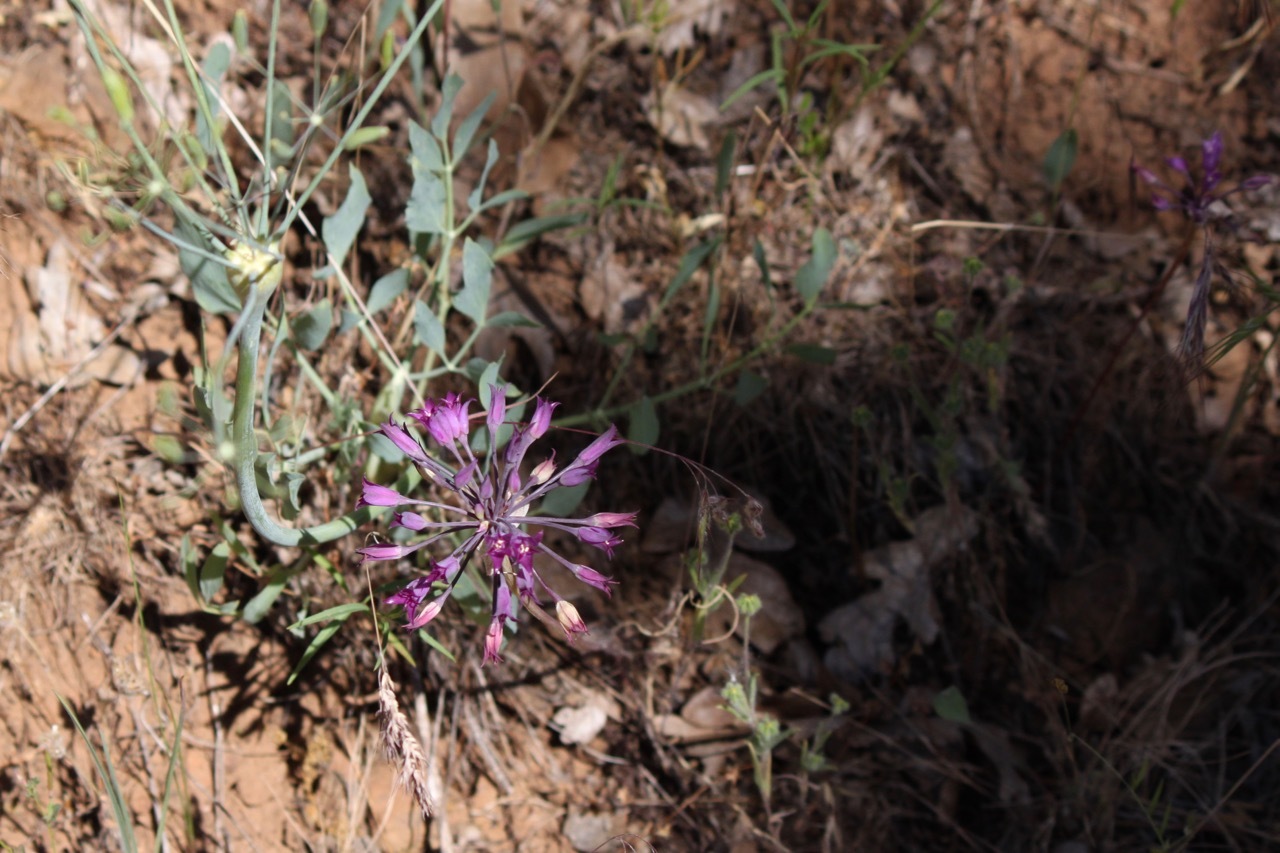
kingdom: Plantae
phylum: Tracheophyta
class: Liliopsida
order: Asparagales
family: Amaryllidaceae
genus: Allium
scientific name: Allium acuminatum
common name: Hooker's onion
